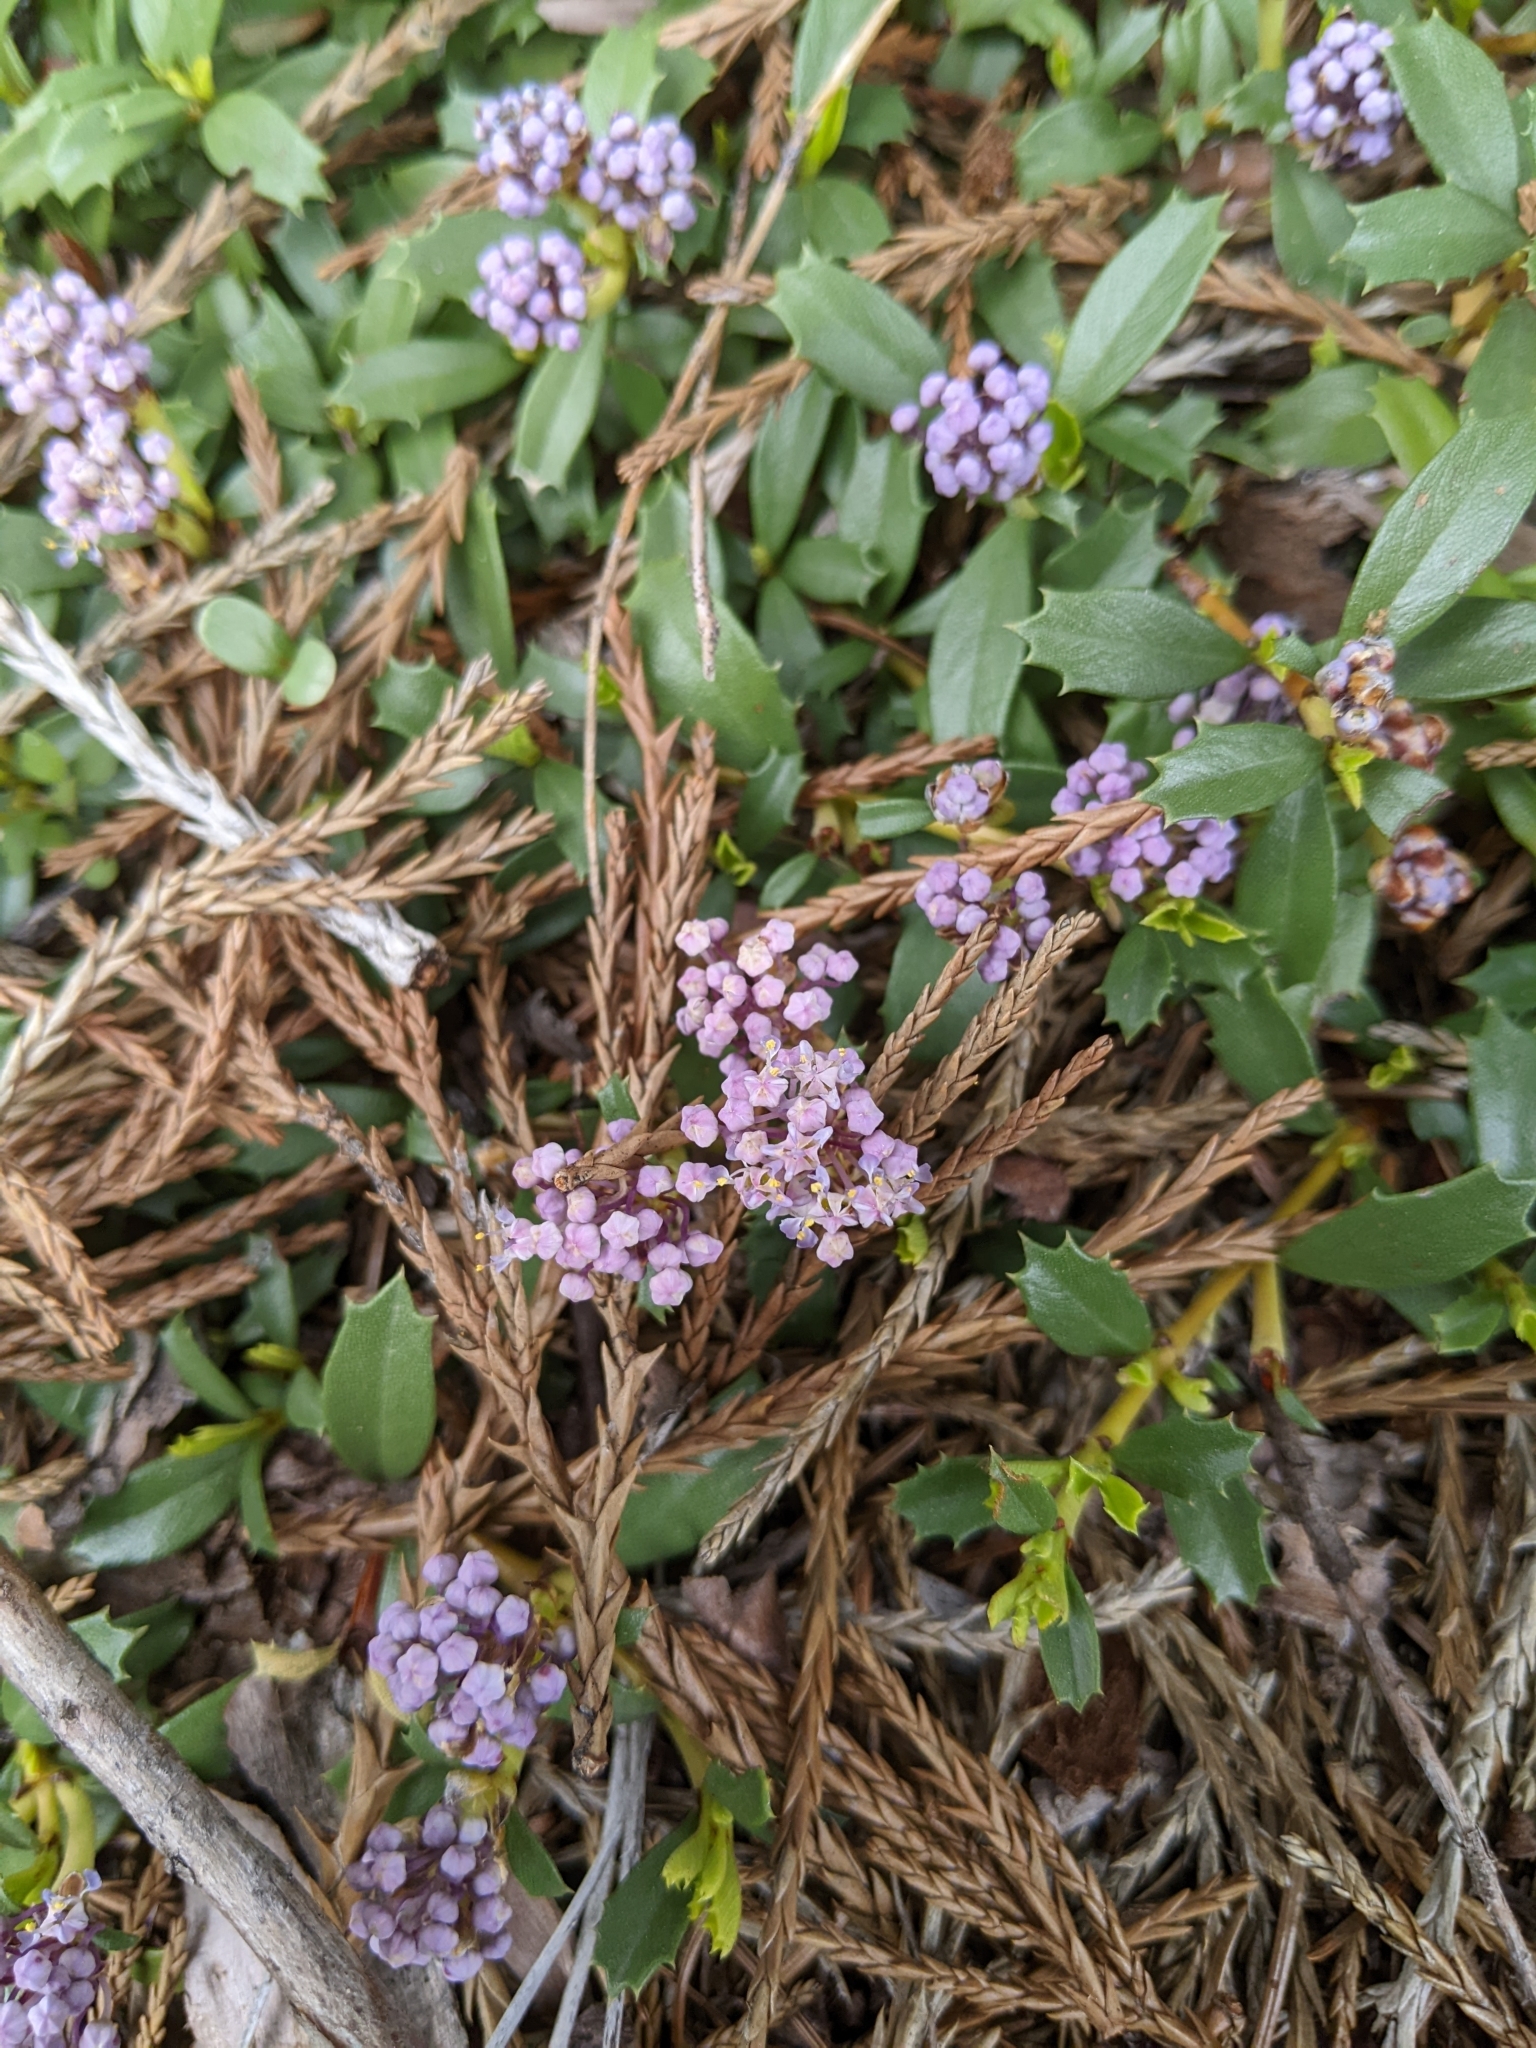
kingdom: Plantae
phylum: Tracheophyta
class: Magnoliopsida
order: Rosales
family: Rhamnaceae
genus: Ceanothus
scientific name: Ceanothus prostratus
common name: Mahala-mat
